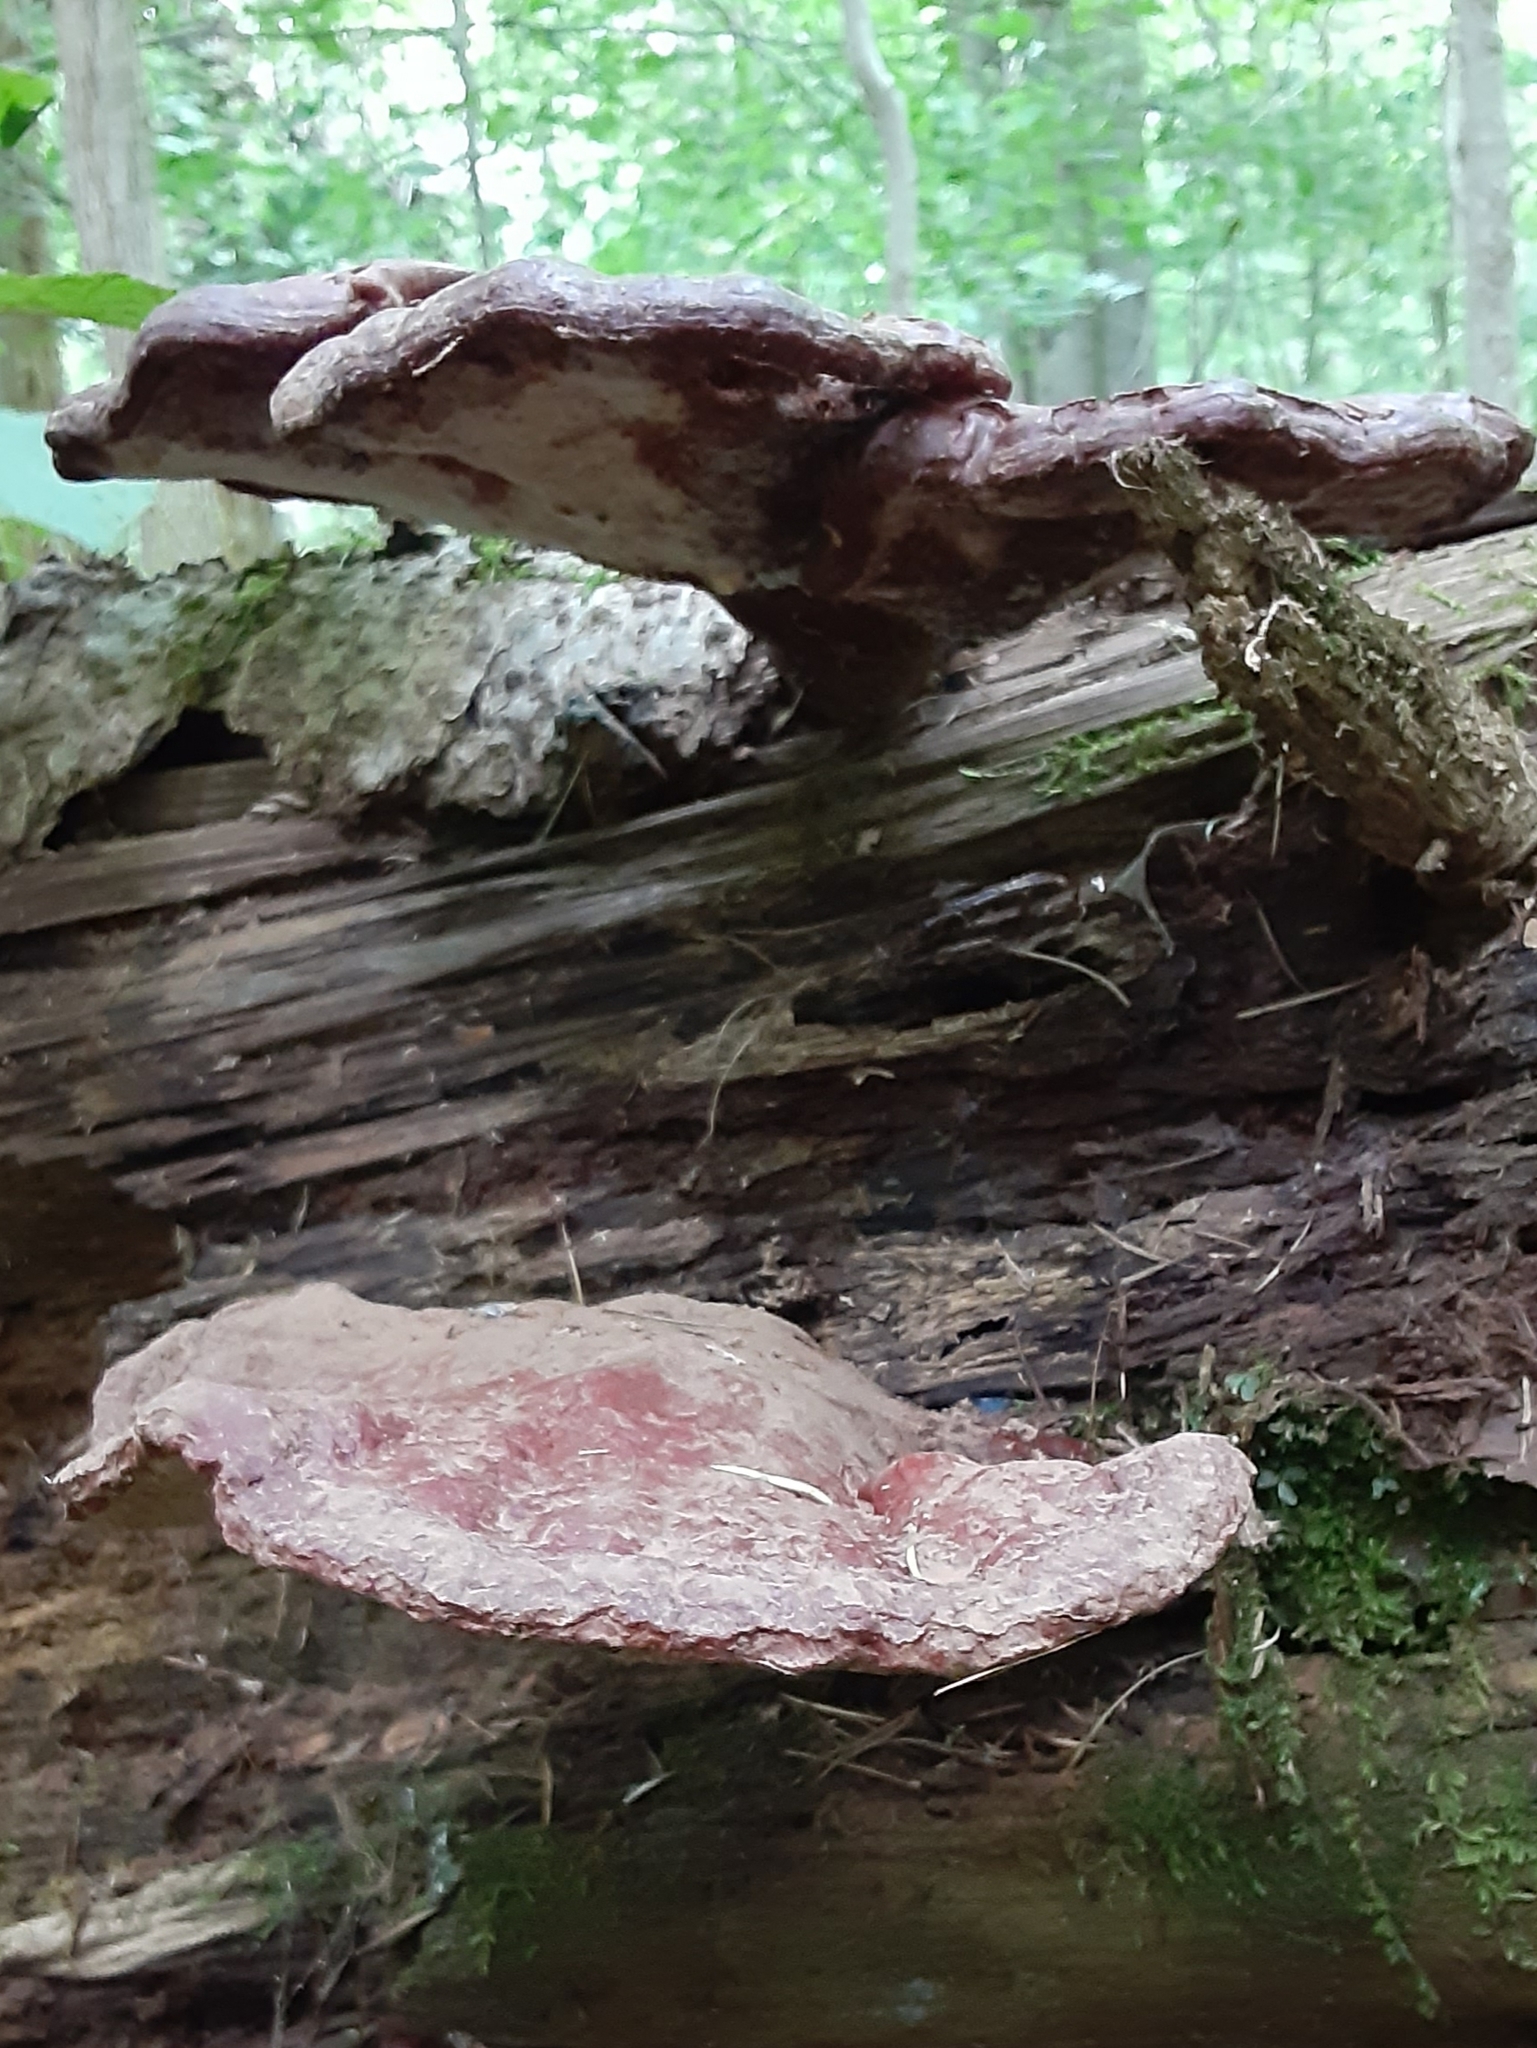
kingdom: Fungi
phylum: Basidiomycota
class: Agaricomycetes
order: Polyporales
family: Polyporaceae
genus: Ganoderma
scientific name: Ganoderma tsugae
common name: Hemlock varnish shelf
